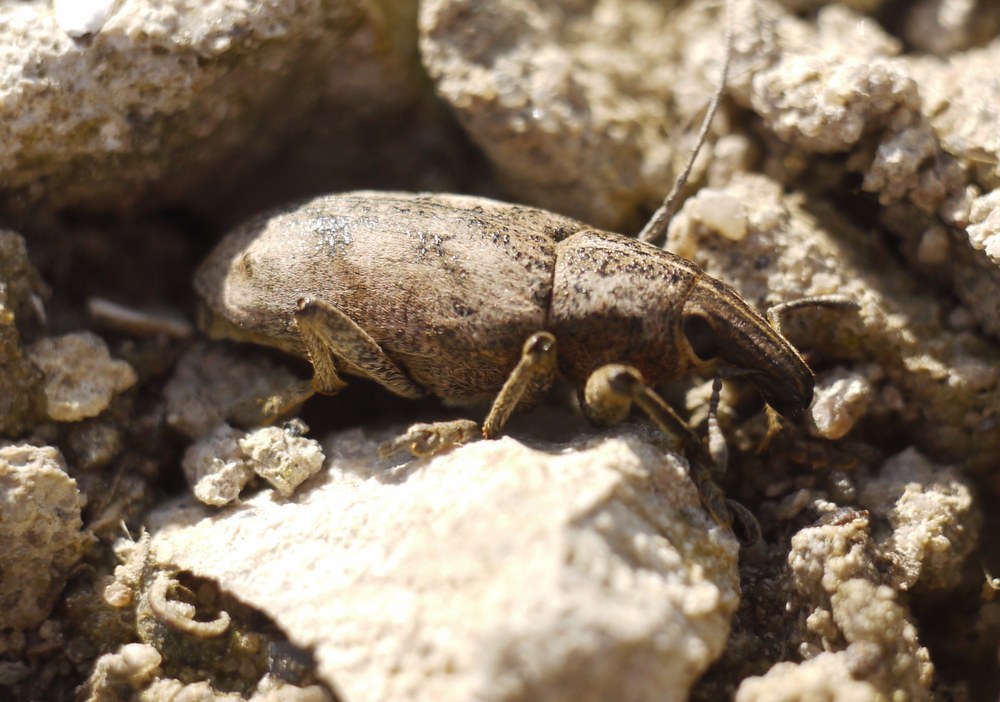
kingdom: Animalia
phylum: Arthropoda
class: Insecta
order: Coleoptera
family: Curculionidae
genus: Cleonis
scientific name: Cleonis pigra
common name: Large thistle weevil
